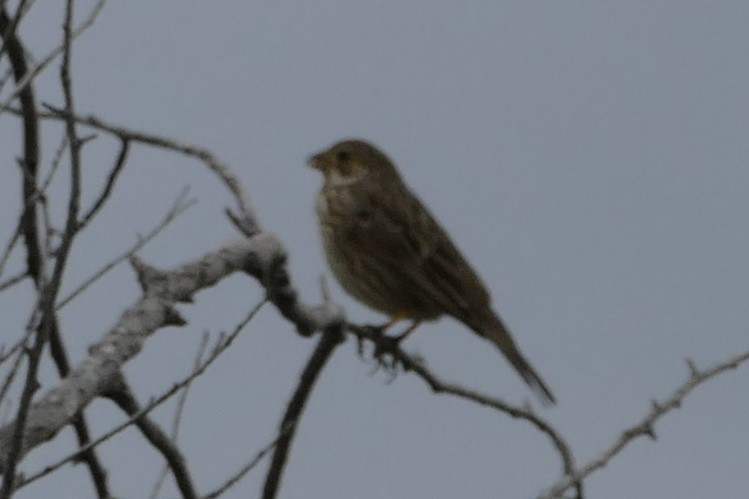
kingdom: Animalia
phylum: Chordata
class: Aves
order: Passeriformes
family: Emberizidae
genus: Emberiza
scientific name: Emberiza calandra
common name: Corn bunting
